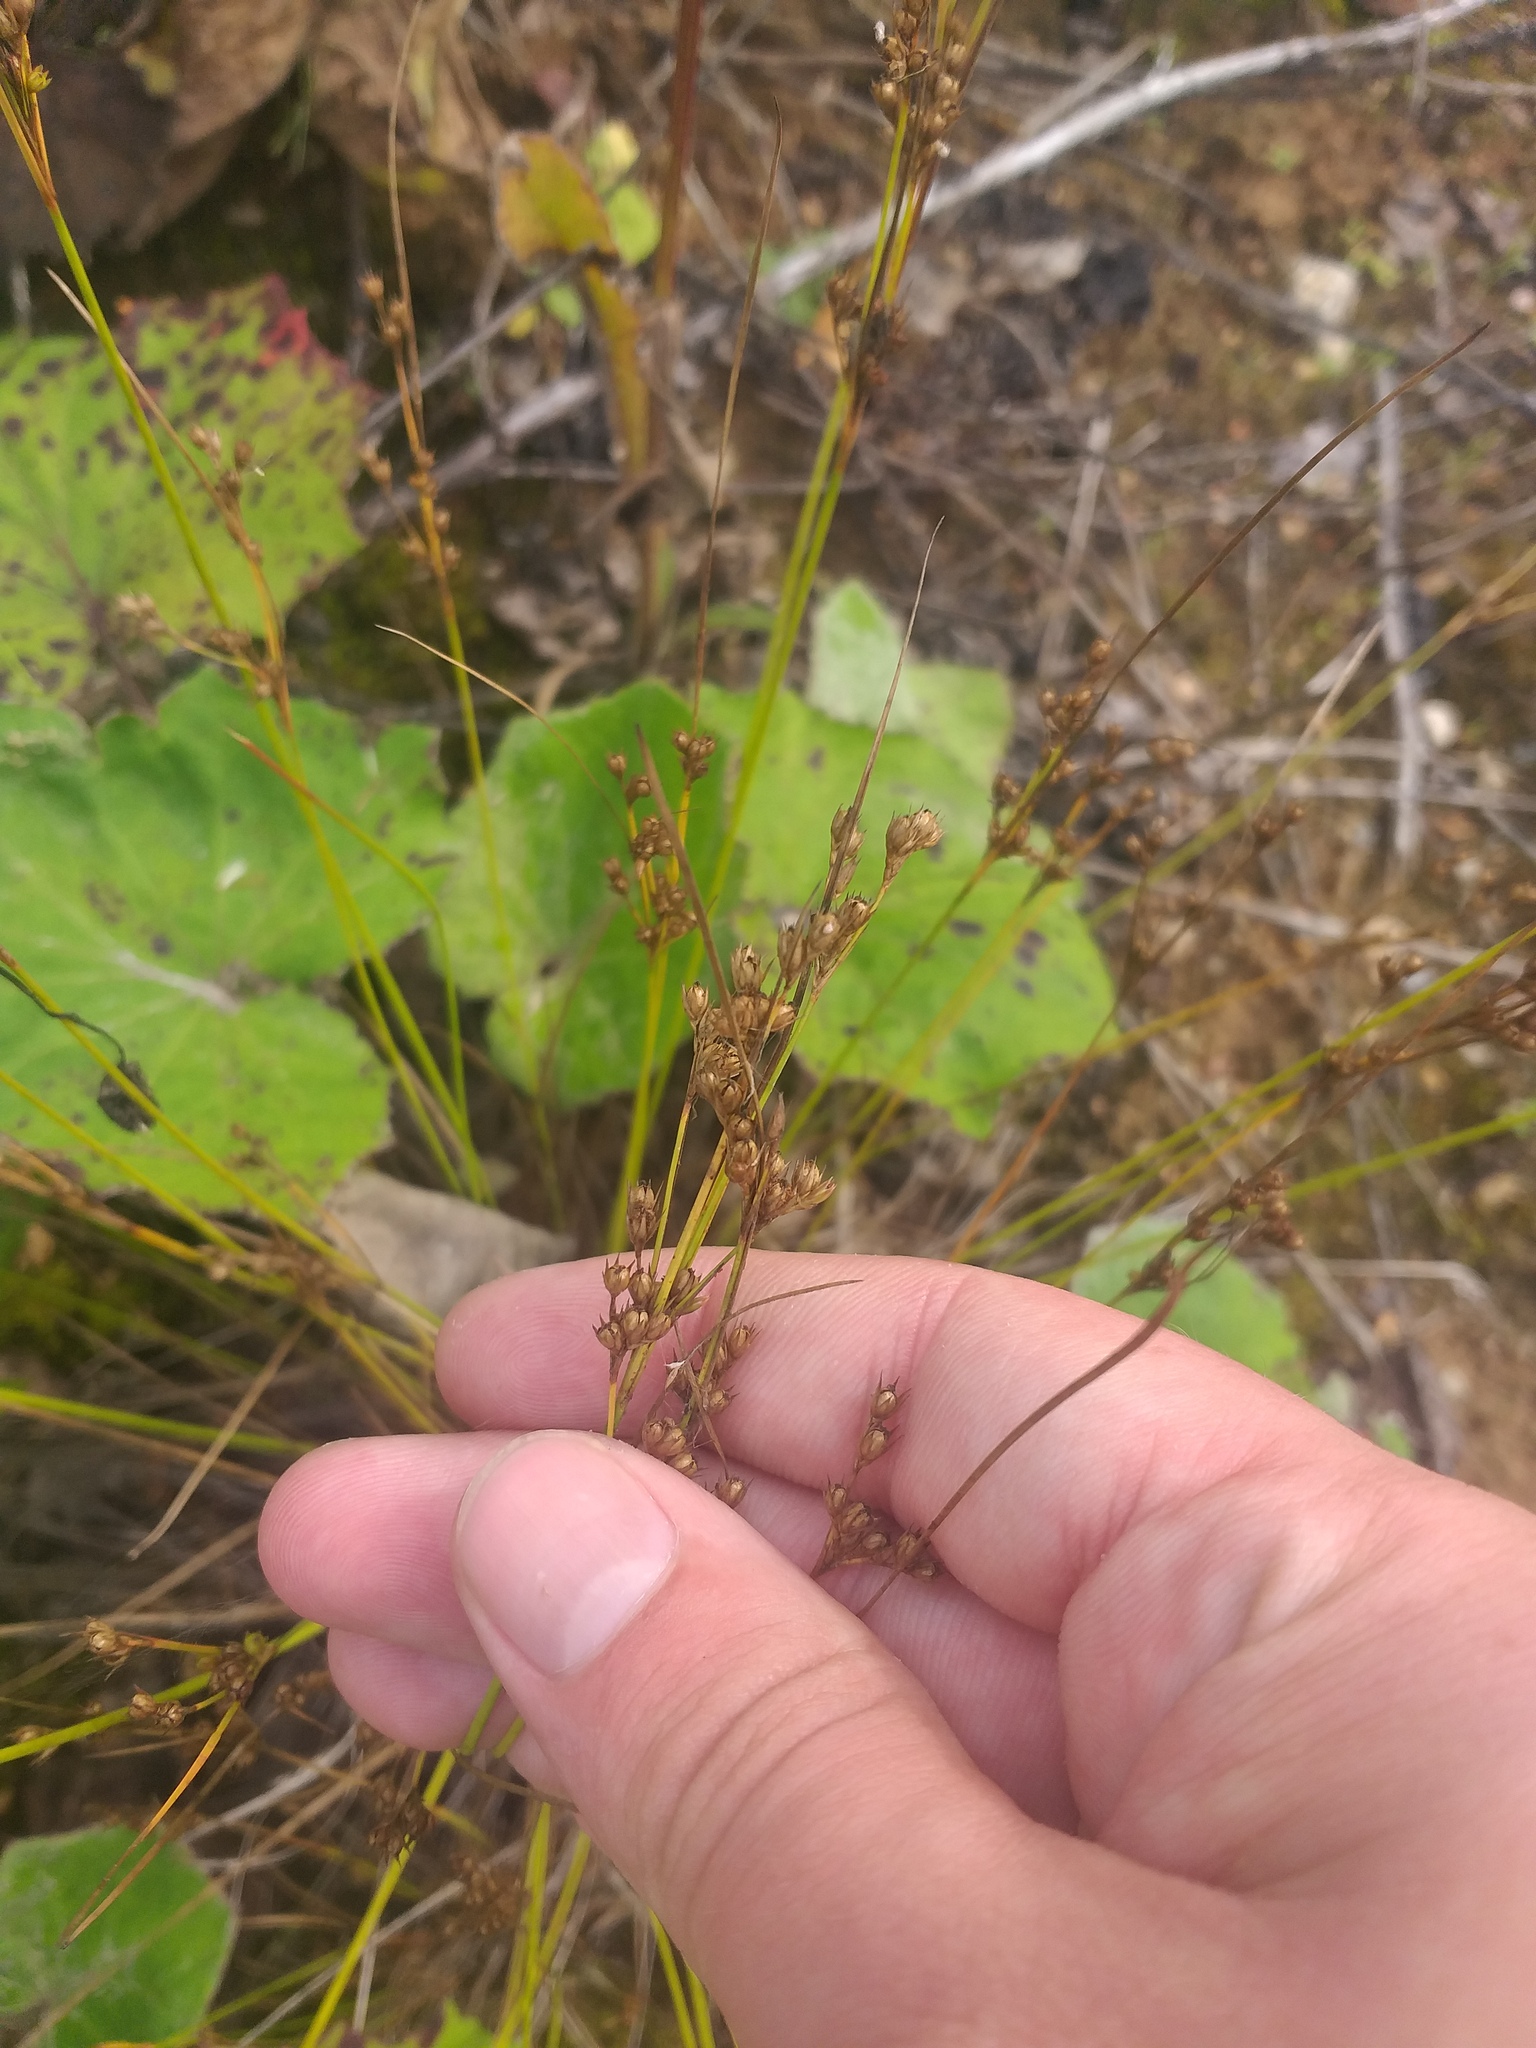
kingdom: Plantae
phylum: Tracheophyta
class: Liliopsida
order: Poales
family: Juncaceae
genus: Juncus
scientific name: Juncus tenuis
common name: Slender rush
